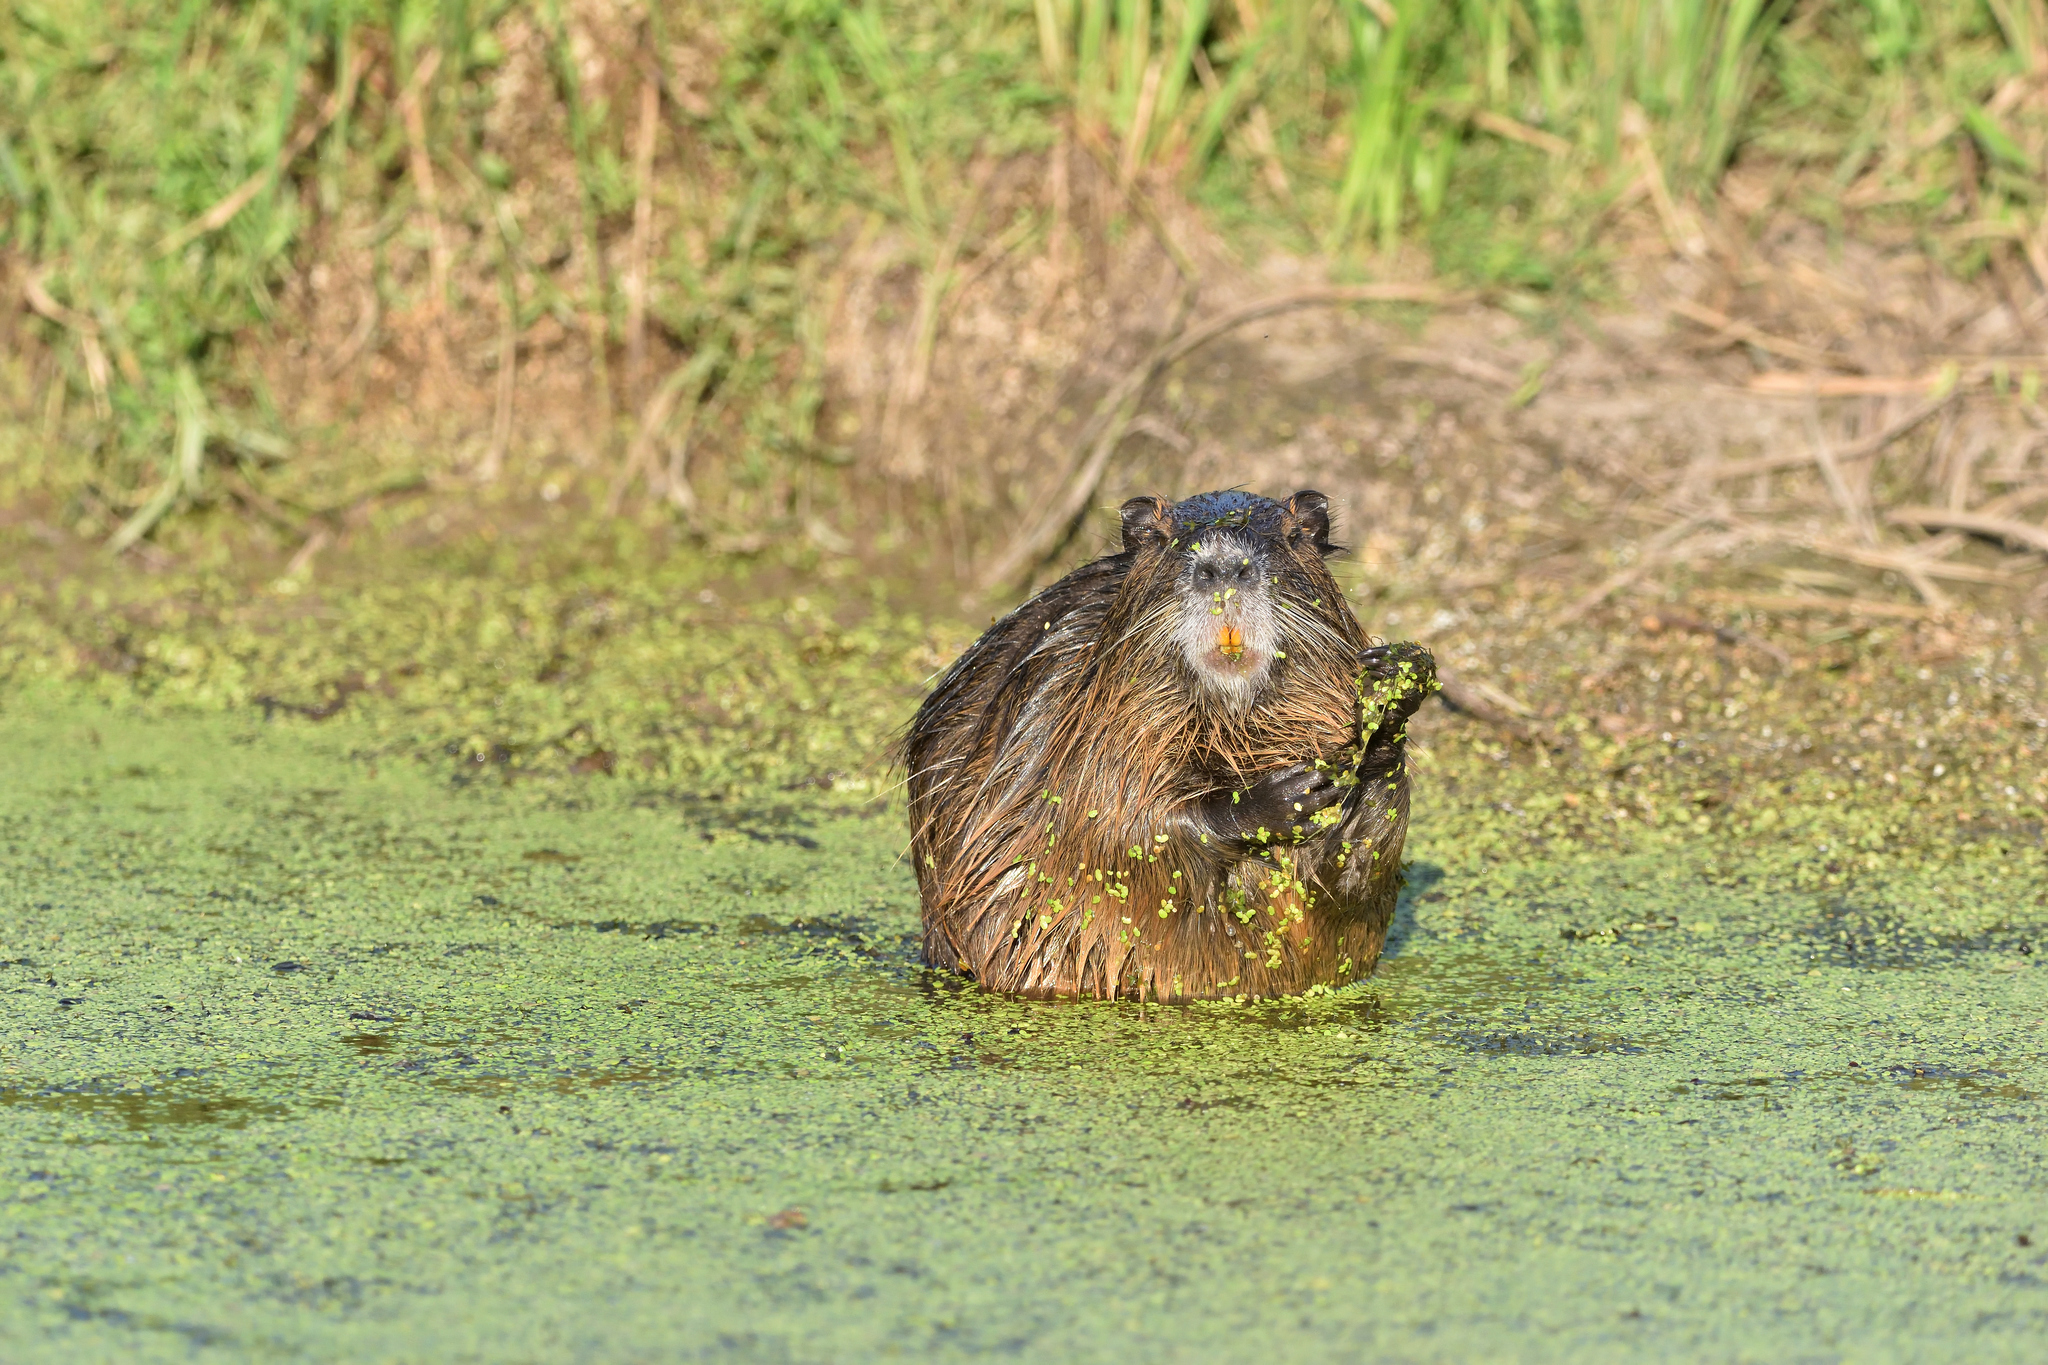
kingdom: Animalia
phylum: Chordata
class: Mammalia
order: Rodentia
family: Myocastoridae
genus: Myocastor
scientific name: Myocastor coypus
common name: Coypu
